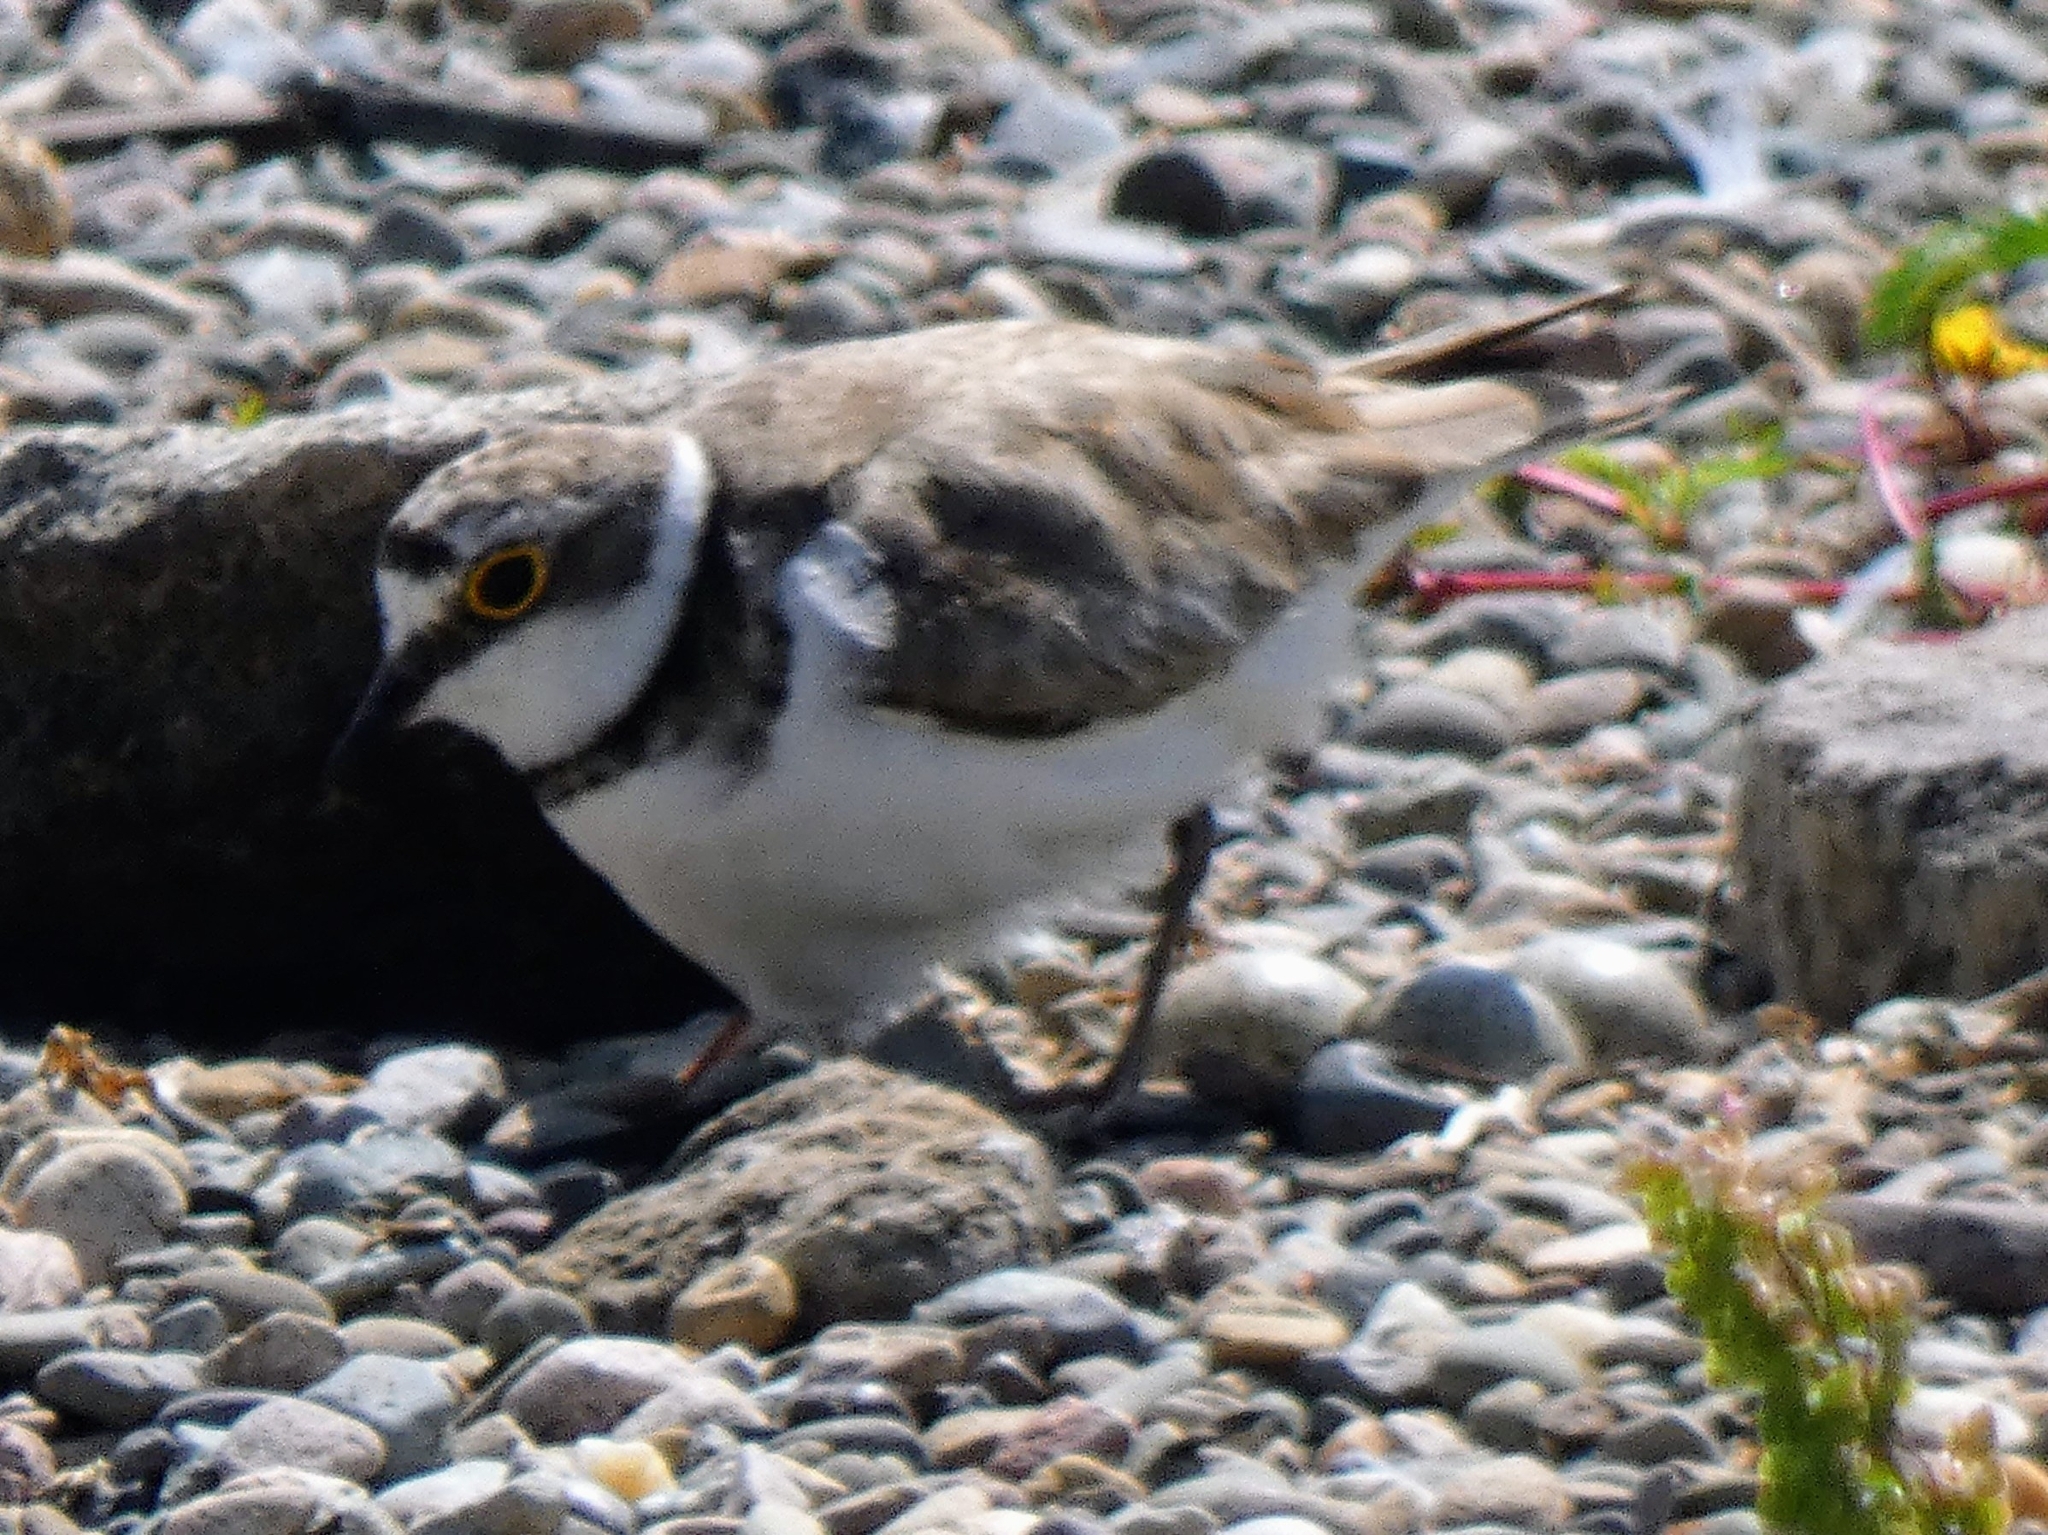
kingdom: Animalia
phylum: Chordata
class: Aves
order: Charadriiformes
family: Charadriidae
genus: Charadrius
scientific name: Charadrius dubius
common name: Little ringed plover
